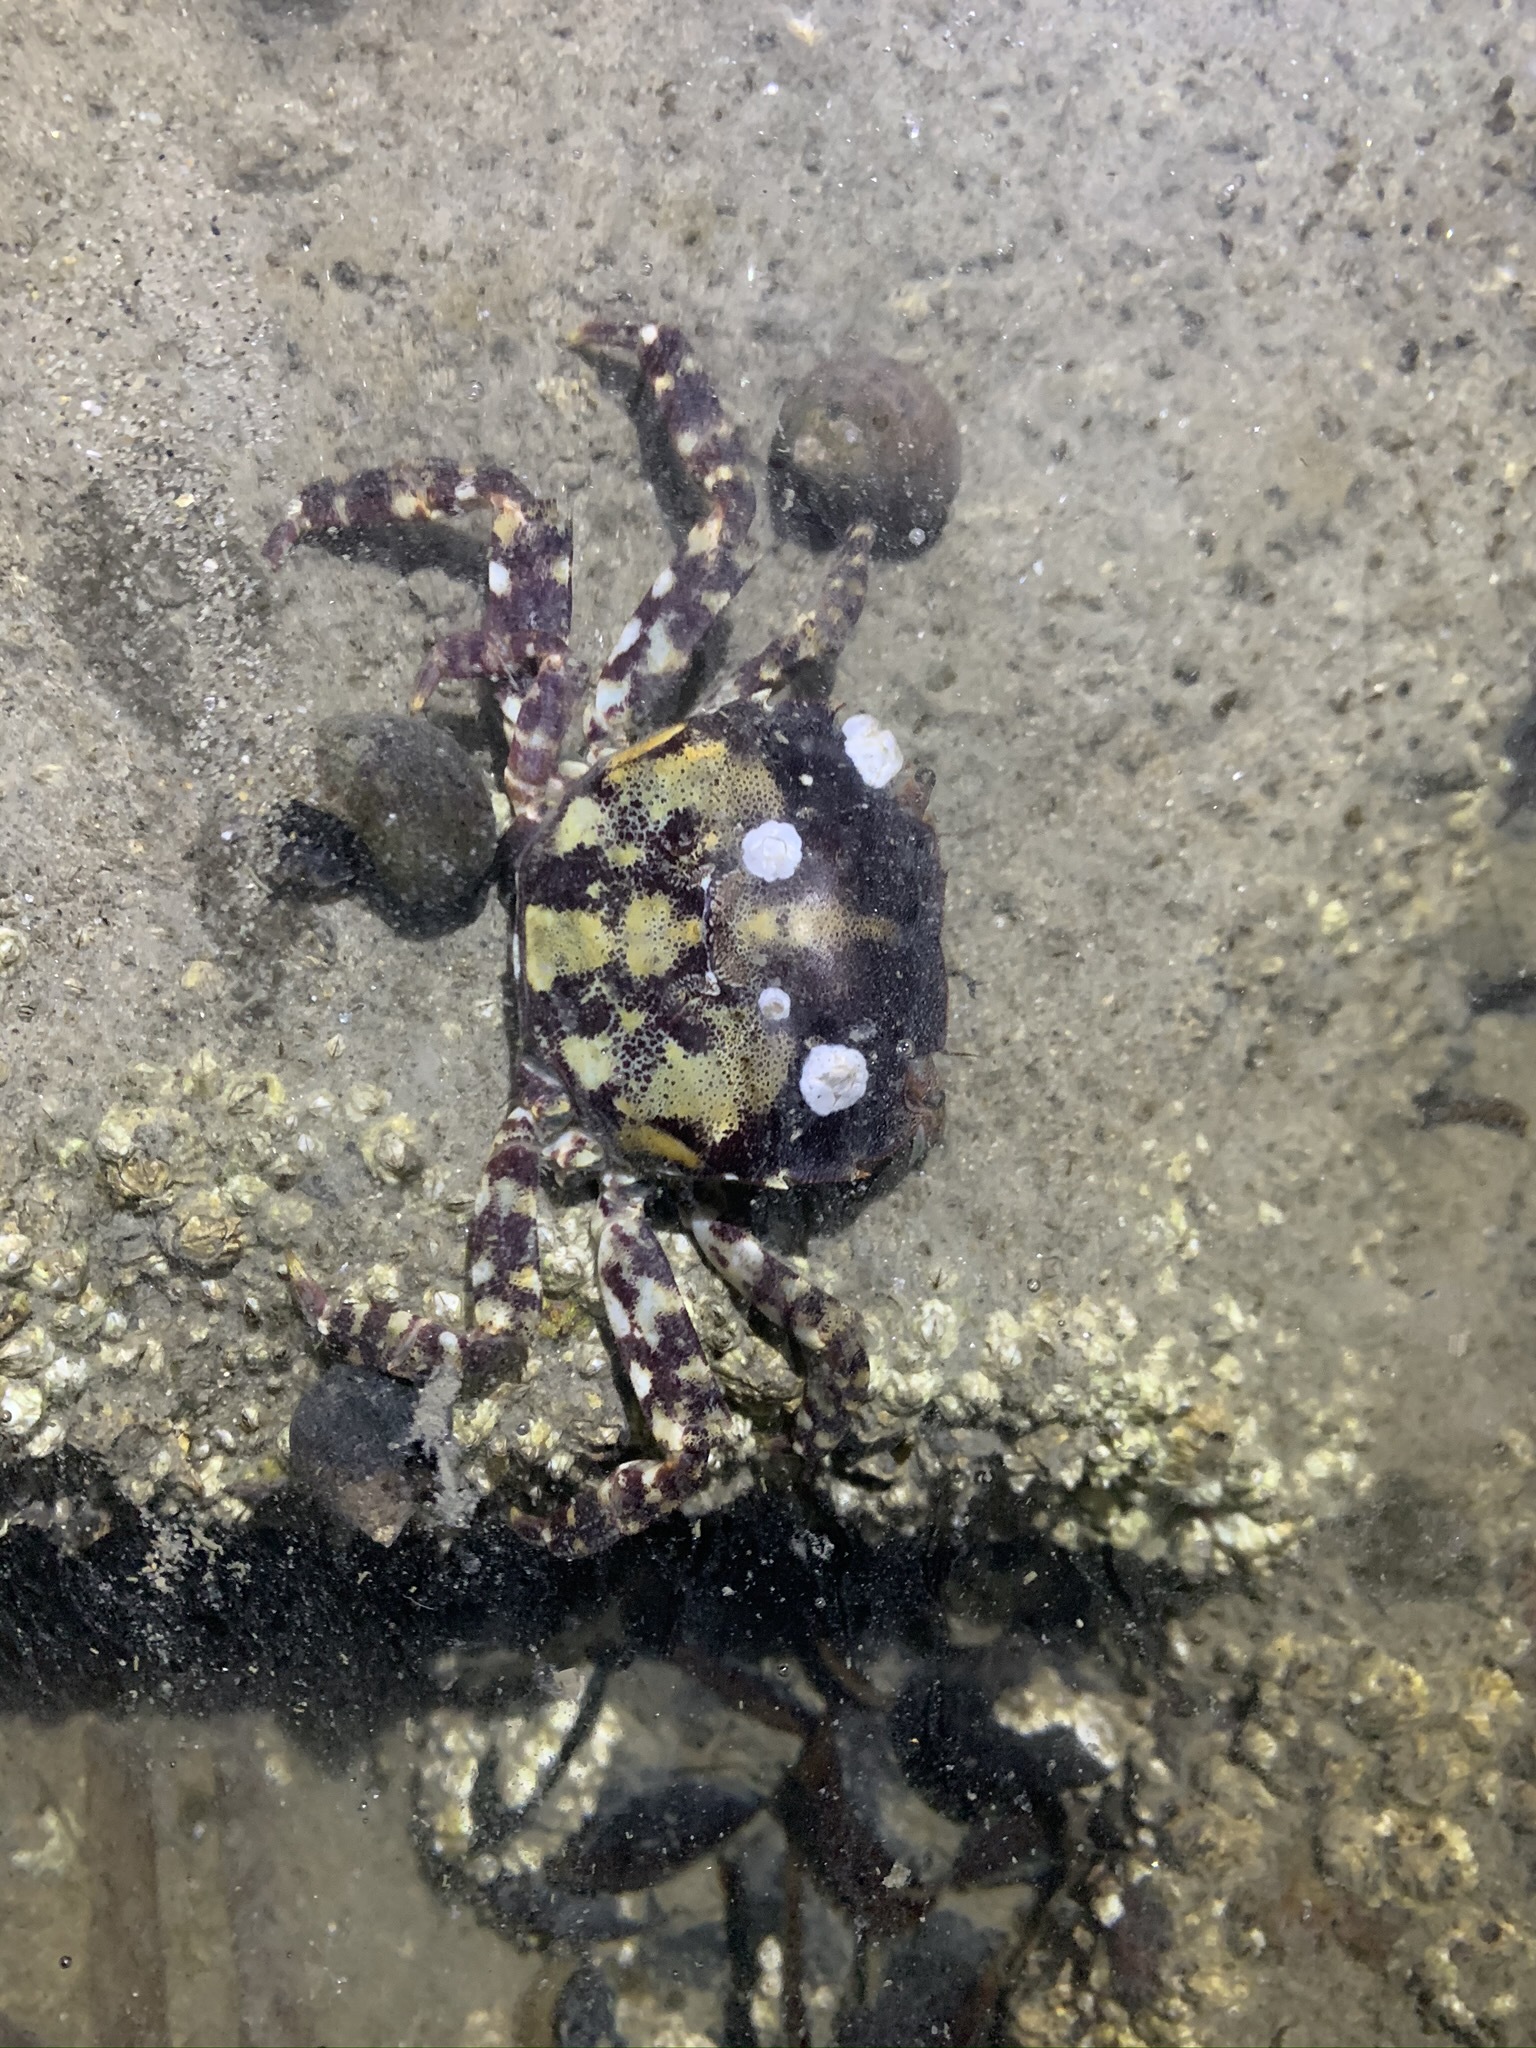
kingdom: Animalia
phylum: Arthropoda
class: Malacostraca
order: Decapoda
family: Varunidae
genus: Hemigrapsus
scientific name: Hemigrapsus sanguineus
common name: Asian shore crab
